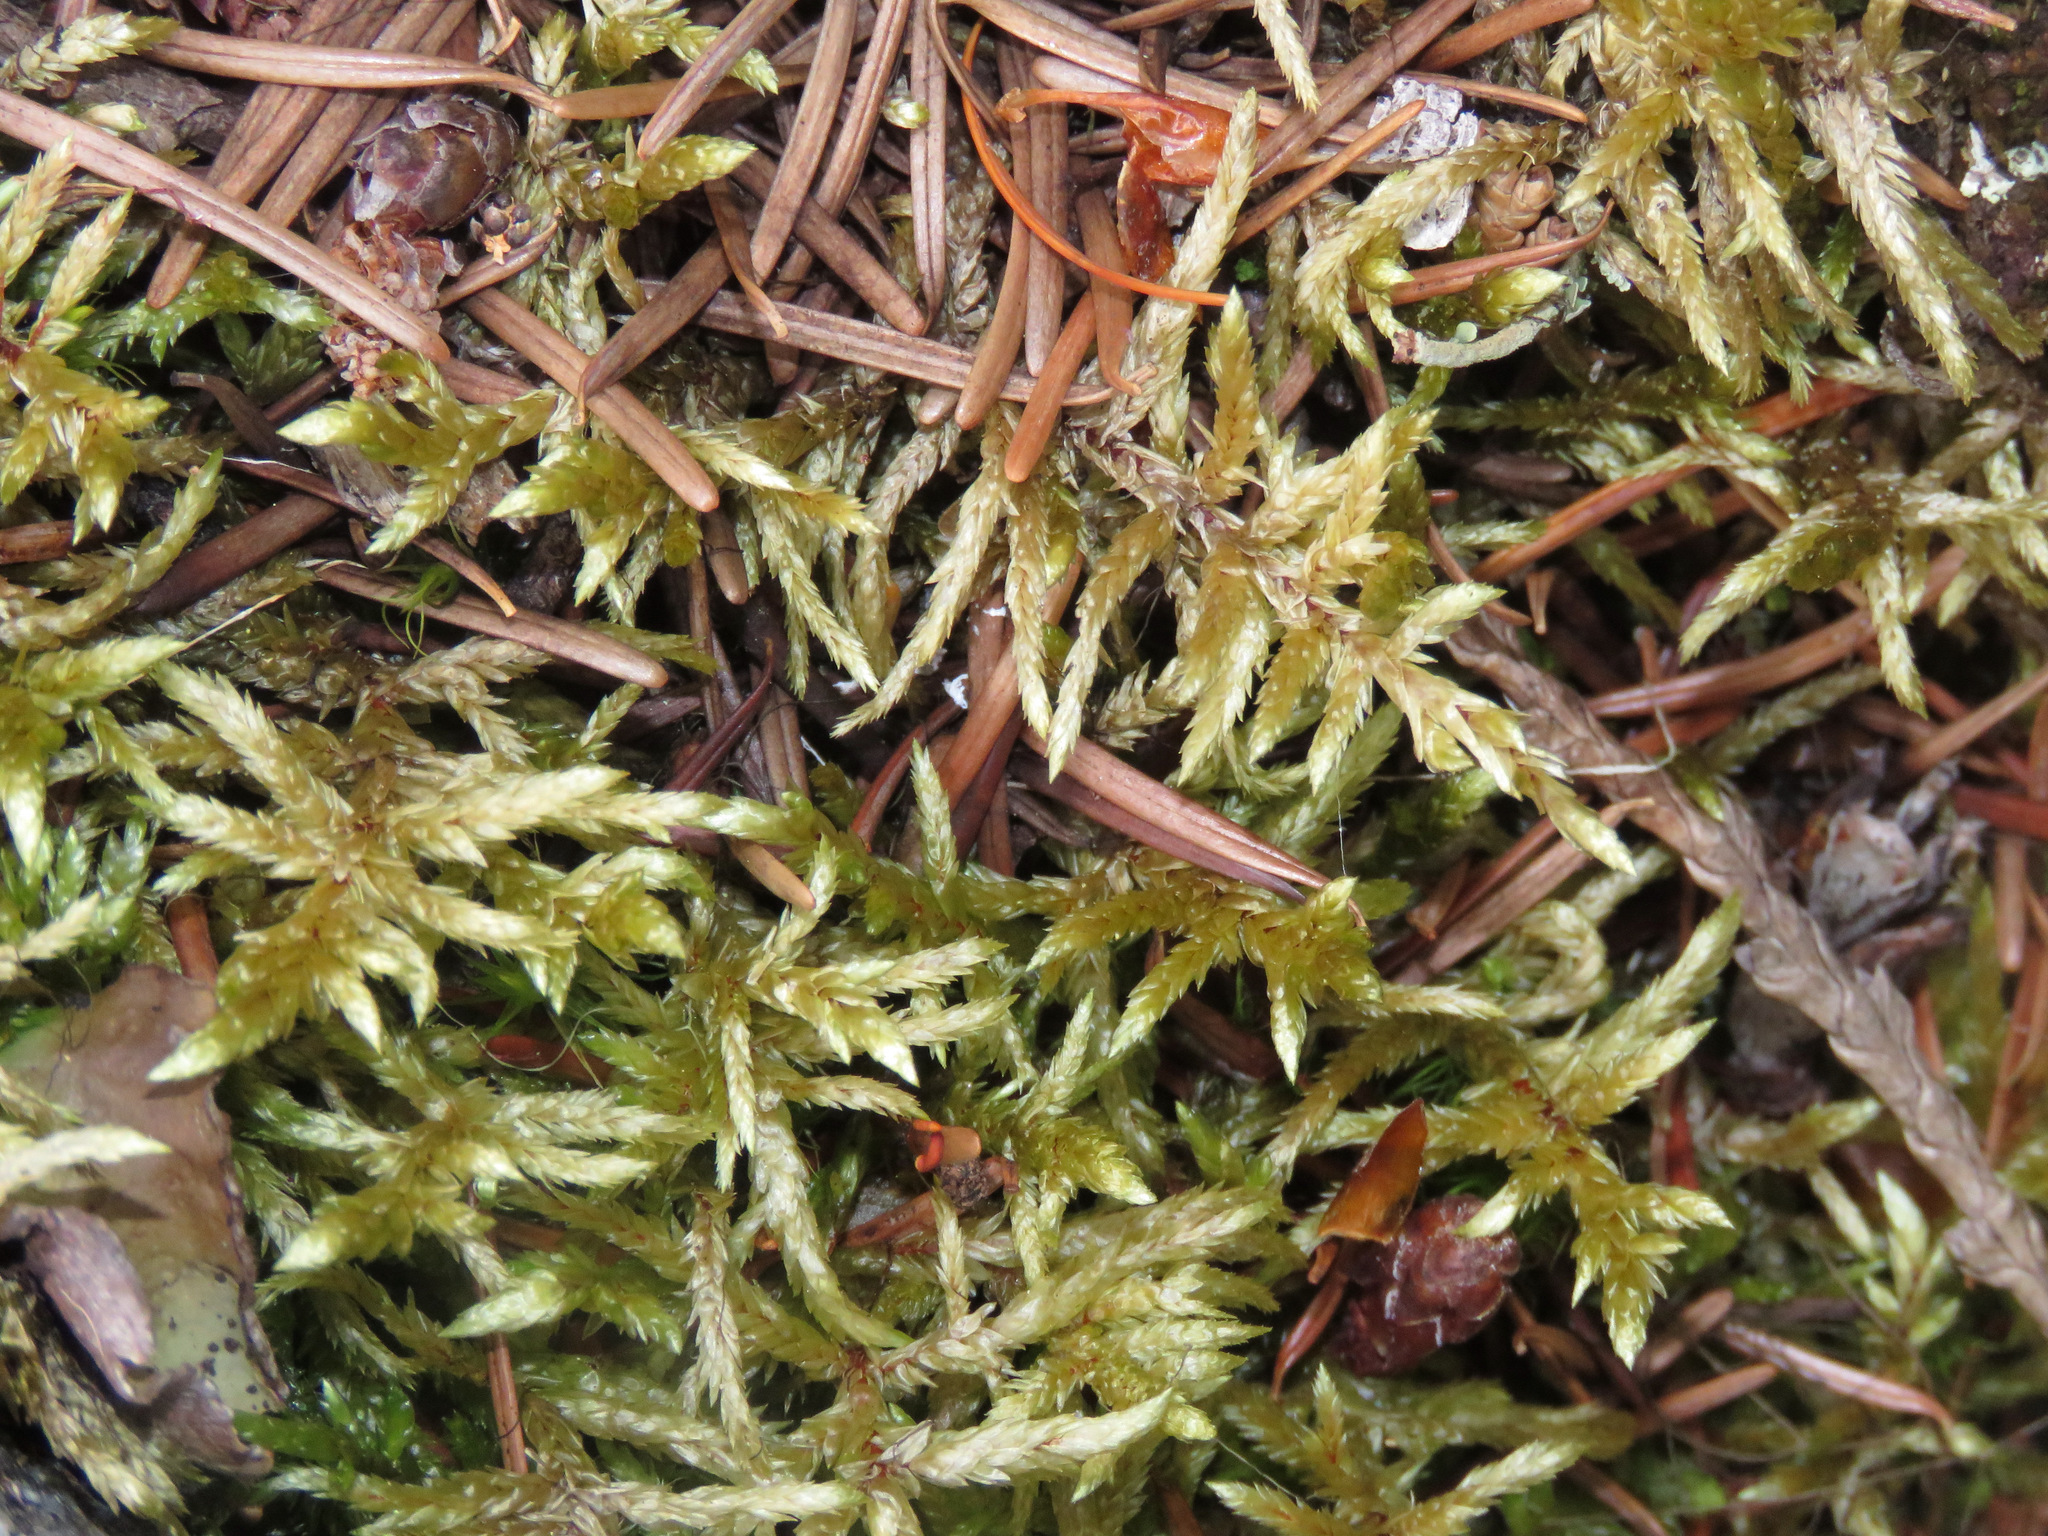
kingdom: Plantae
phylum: Bryophyta
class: Bryopsida
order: Hypnales
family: Hylocomiaceae
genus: Pleurozium
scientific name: Pleurozium schreberi
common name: Red-stemmed feather moss
